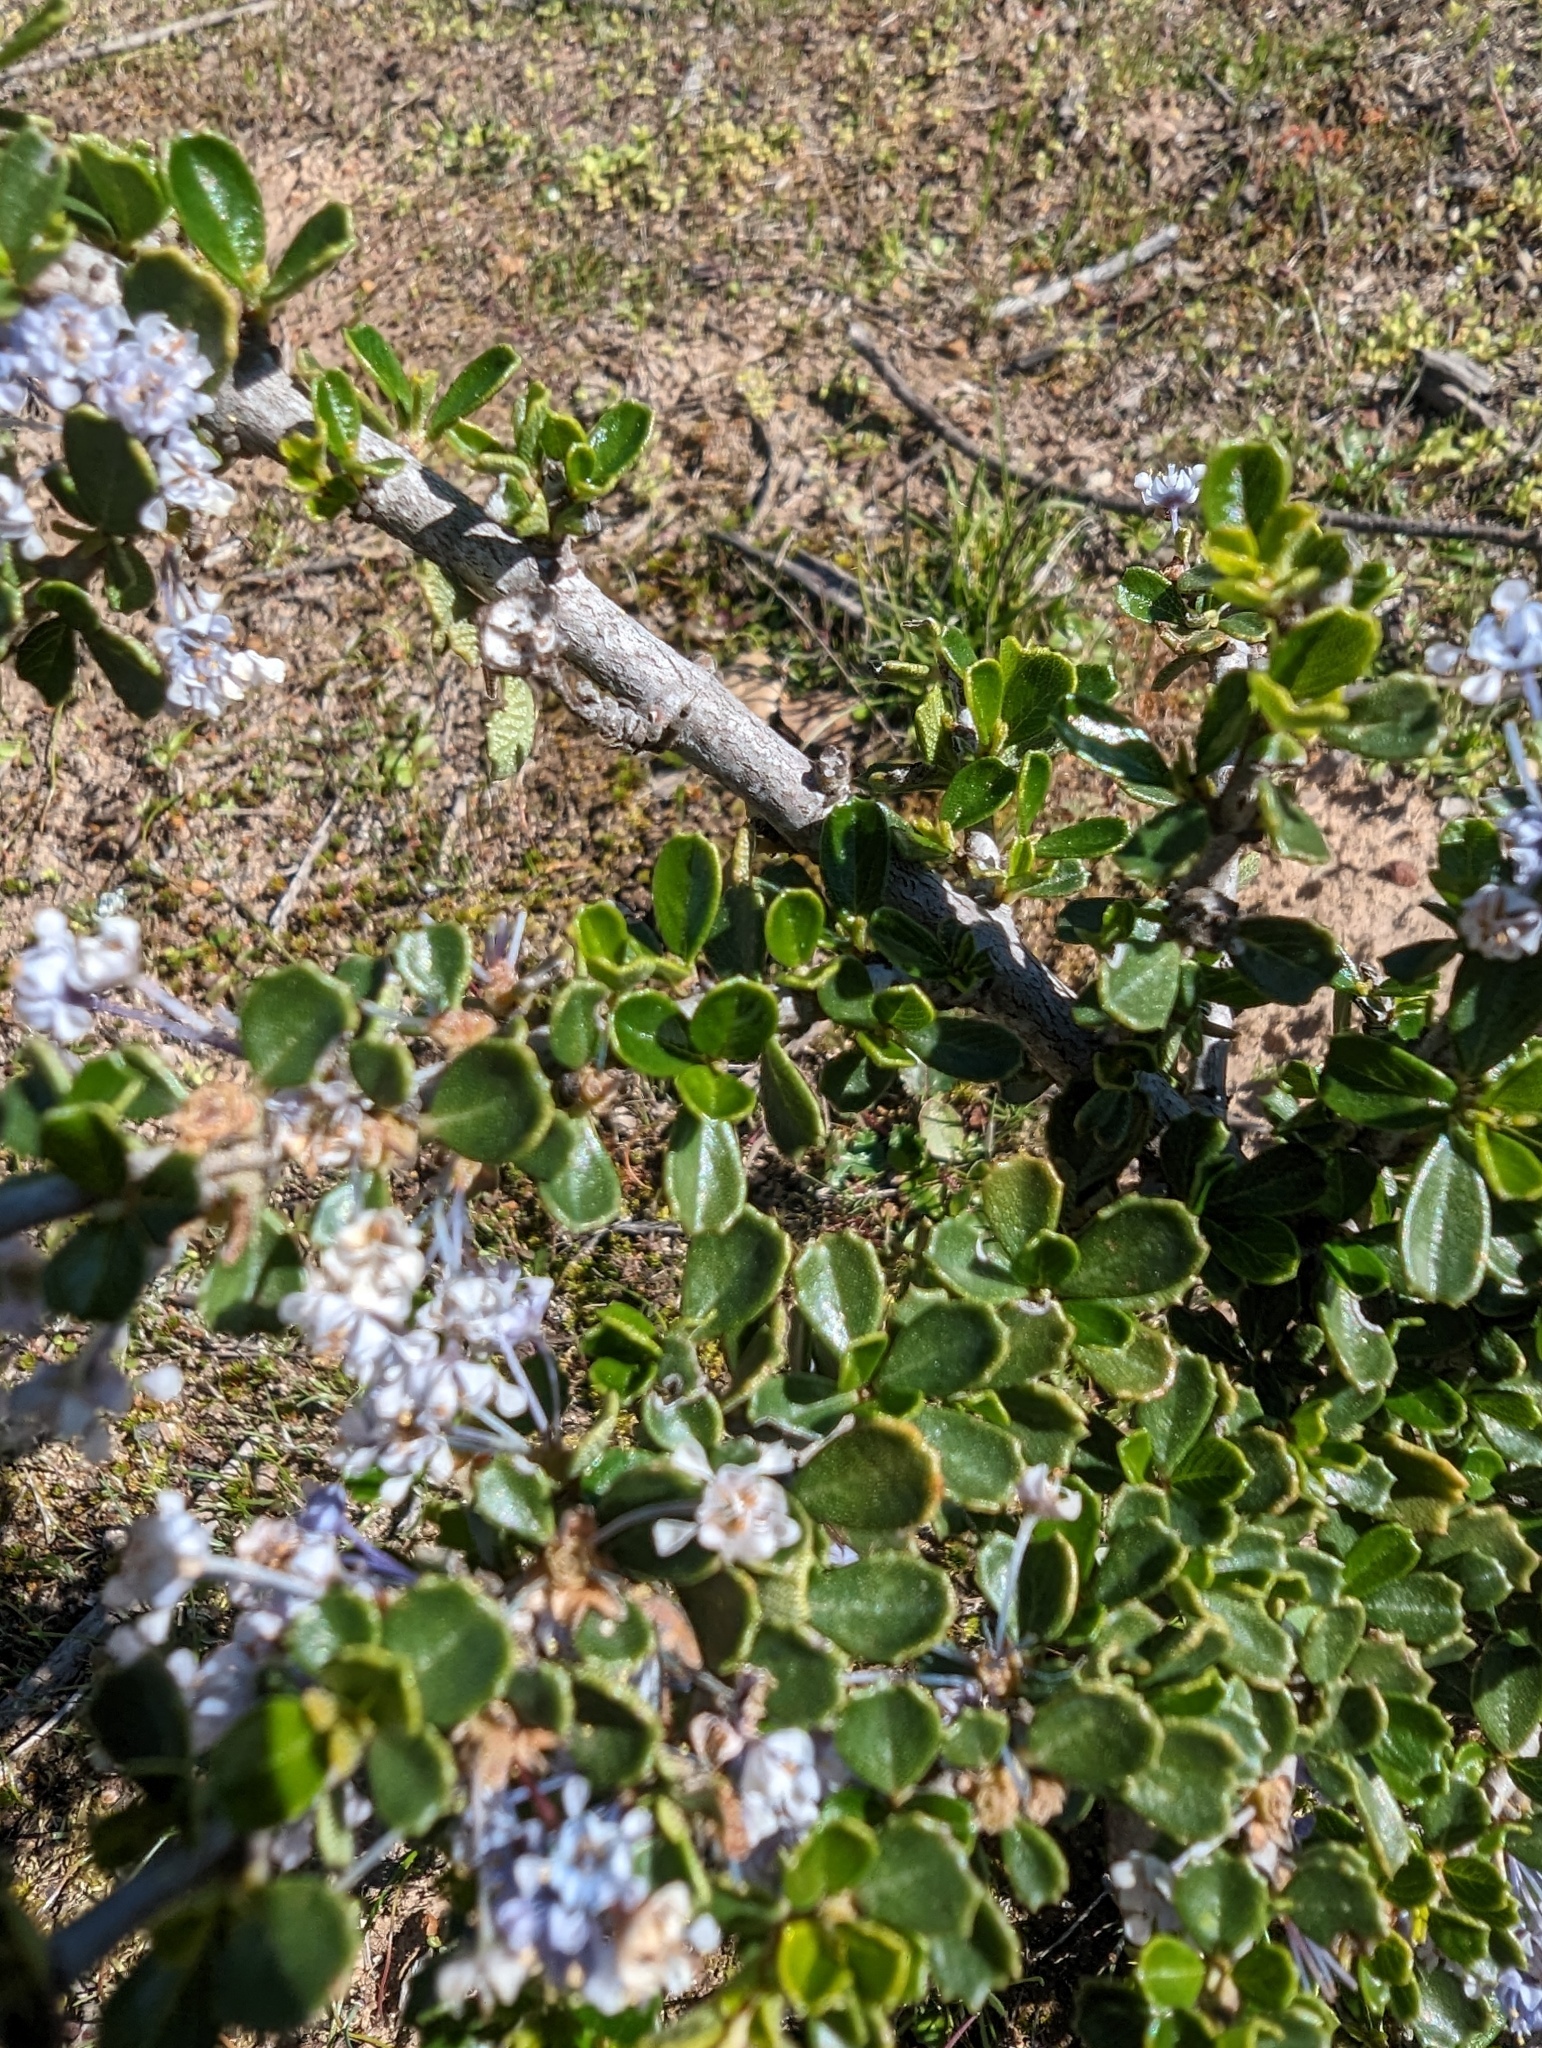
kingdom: Plantae
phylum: Tracheophyta
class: Magnoliopsida
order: Rosales
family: Rhamnaceae
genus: Ceanothus
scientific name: Ceanothus cuneatus
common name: Cuneate ceanothus
